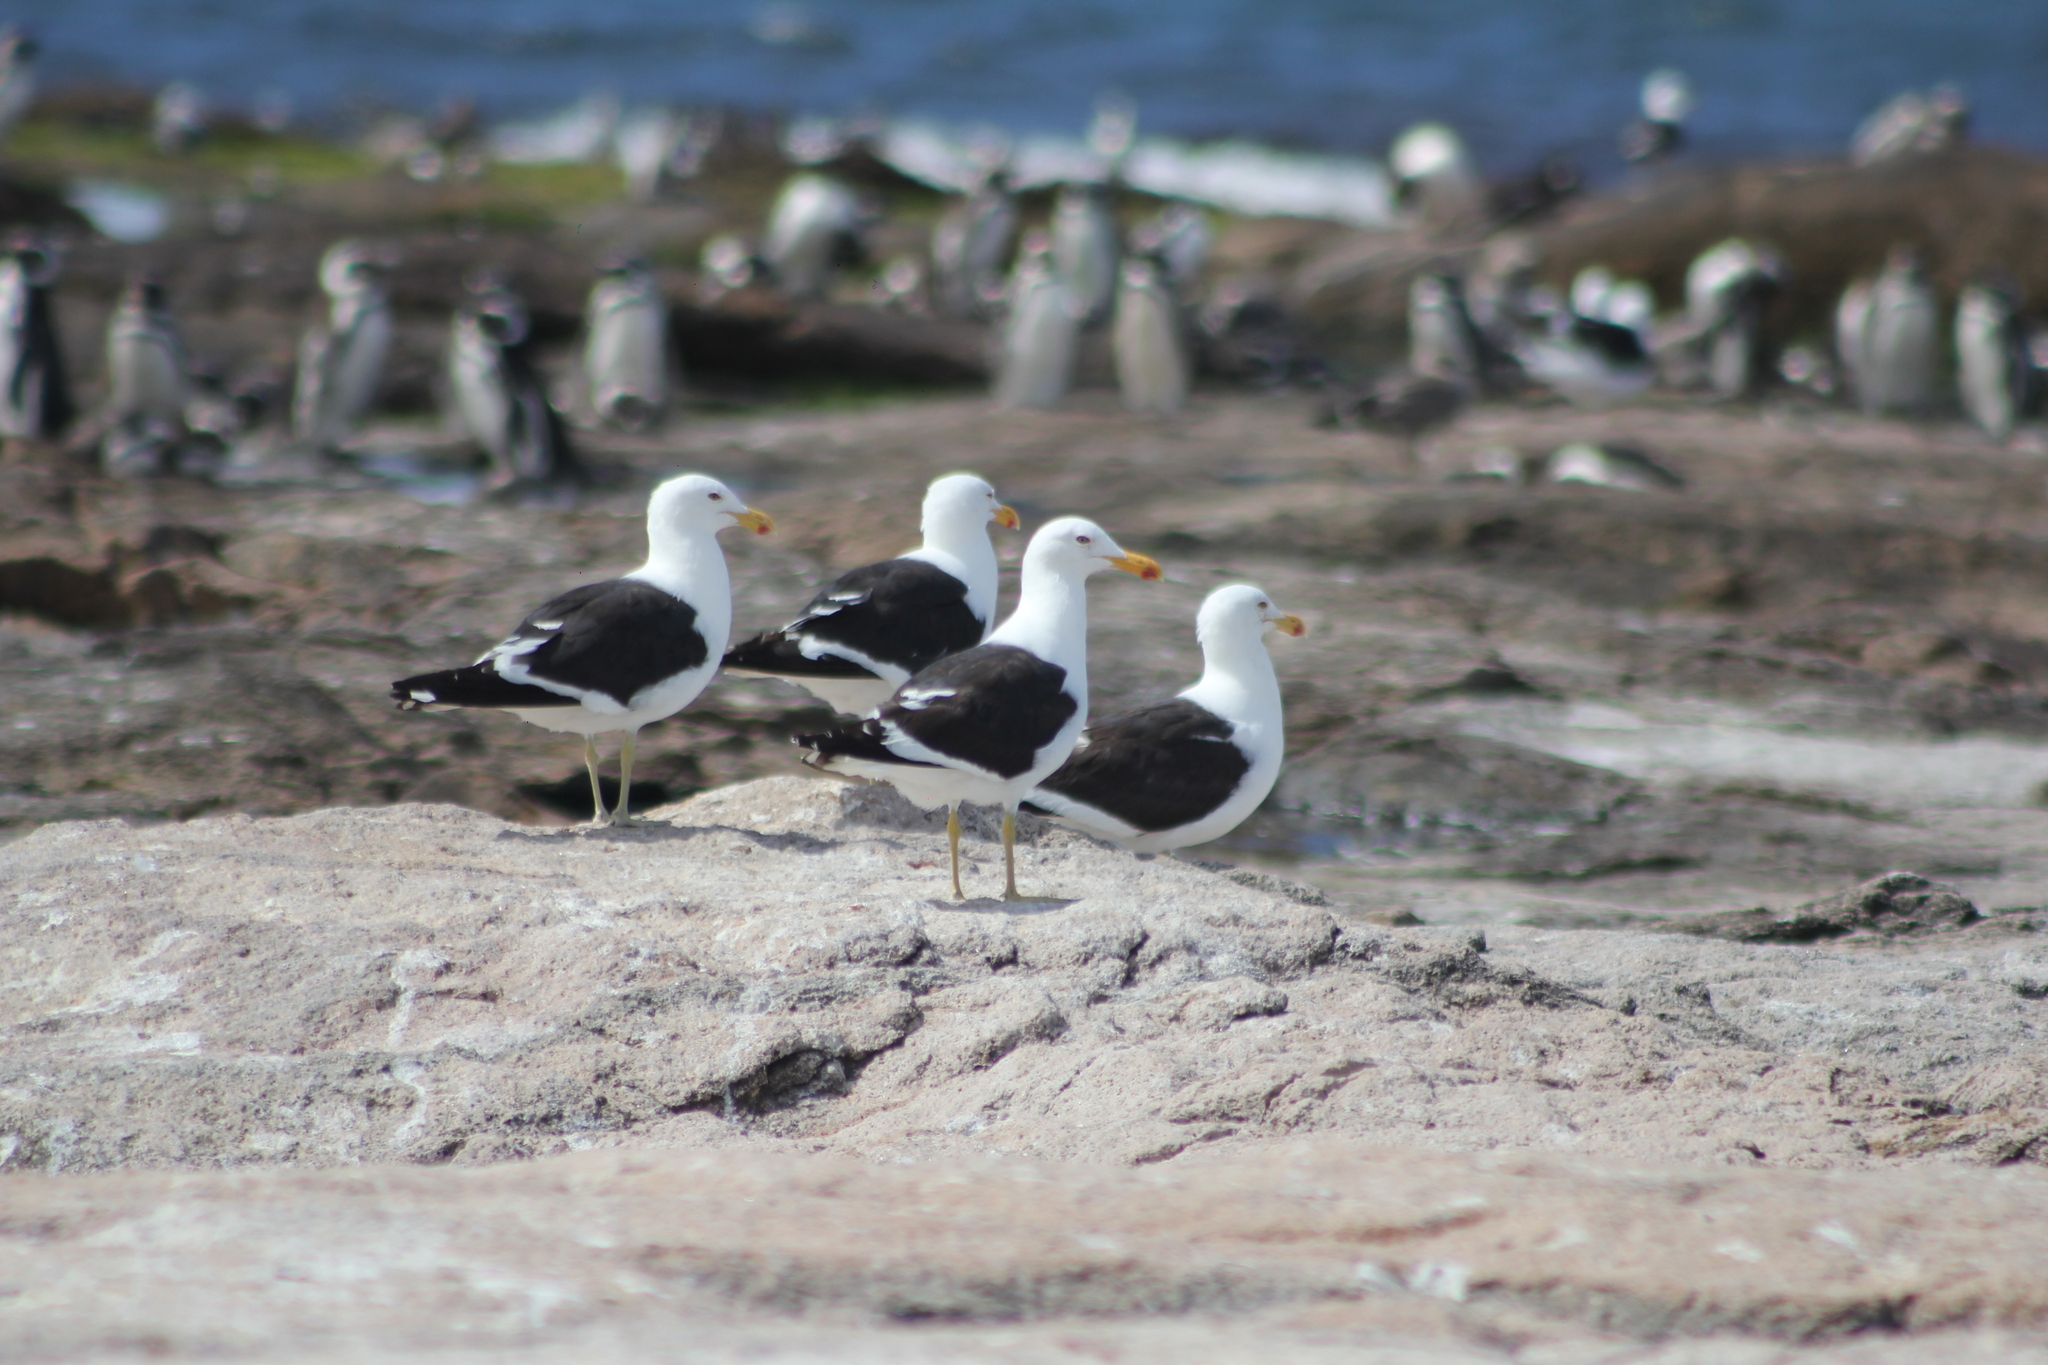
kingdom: Animalia
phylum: Chordata
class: Aves
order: Charadriiformes
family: Laridae
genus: Larus
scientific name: Larus dominicanus
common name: Kelp gull
